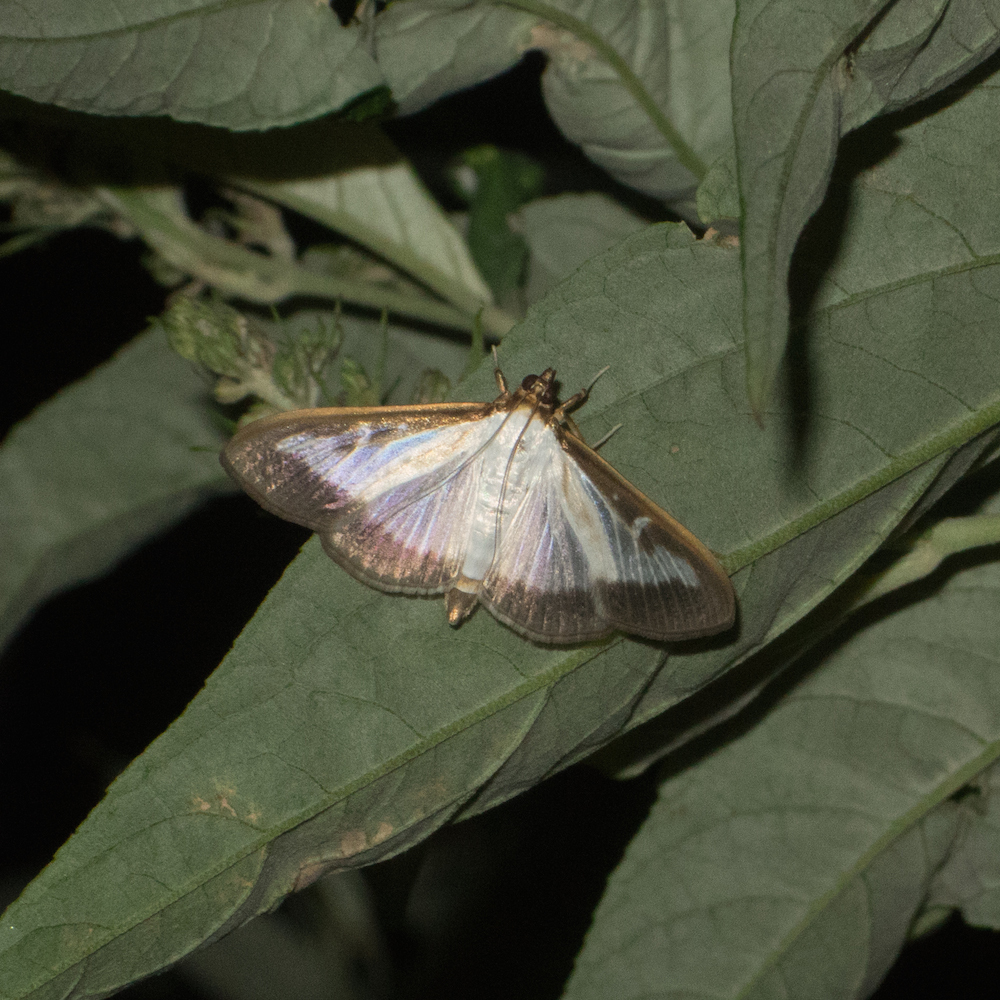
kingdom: Animalia
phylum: Arthropoda
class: Insecta
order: Lepidoptera
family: Crambidae
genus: Cydalima
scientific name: Cydalima perspectalis
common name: Box tree moth
